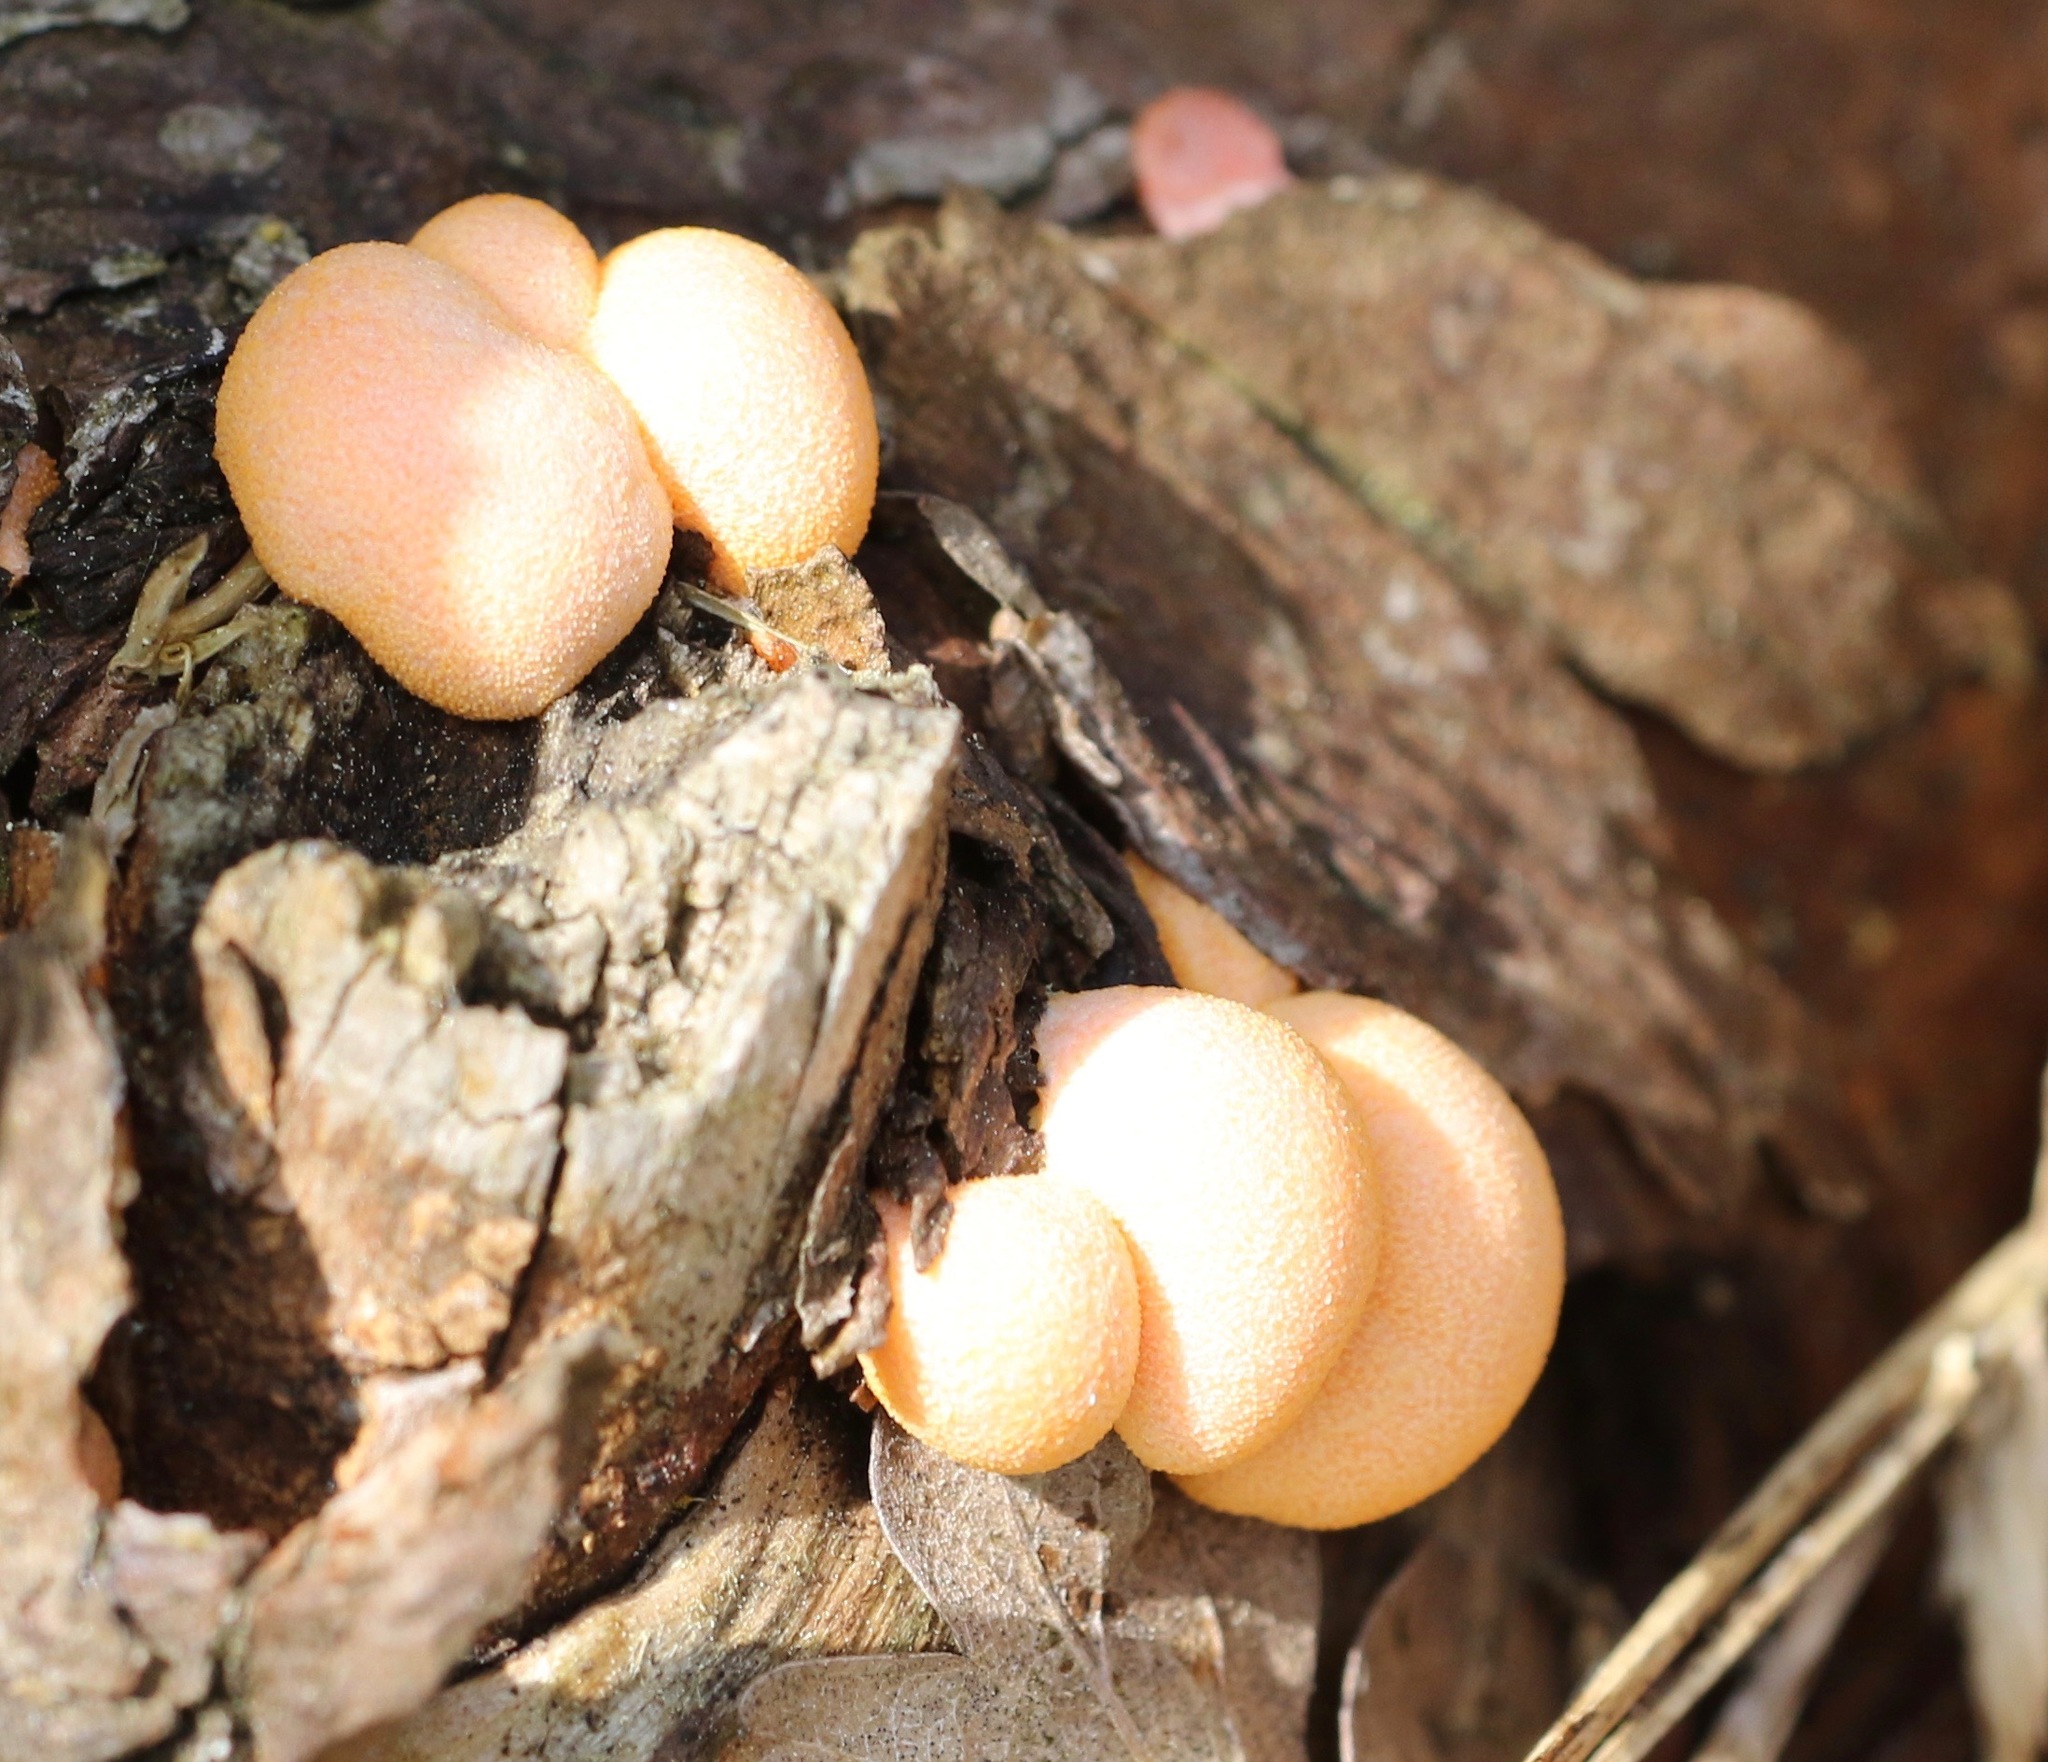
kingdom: Protozoa
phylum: Mycetozoa
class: Myxomycetes
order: Cribrariales
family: Tubiferaceae
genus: Lycogala
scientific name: Lycogala epidendrum
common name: Wolf's milk
